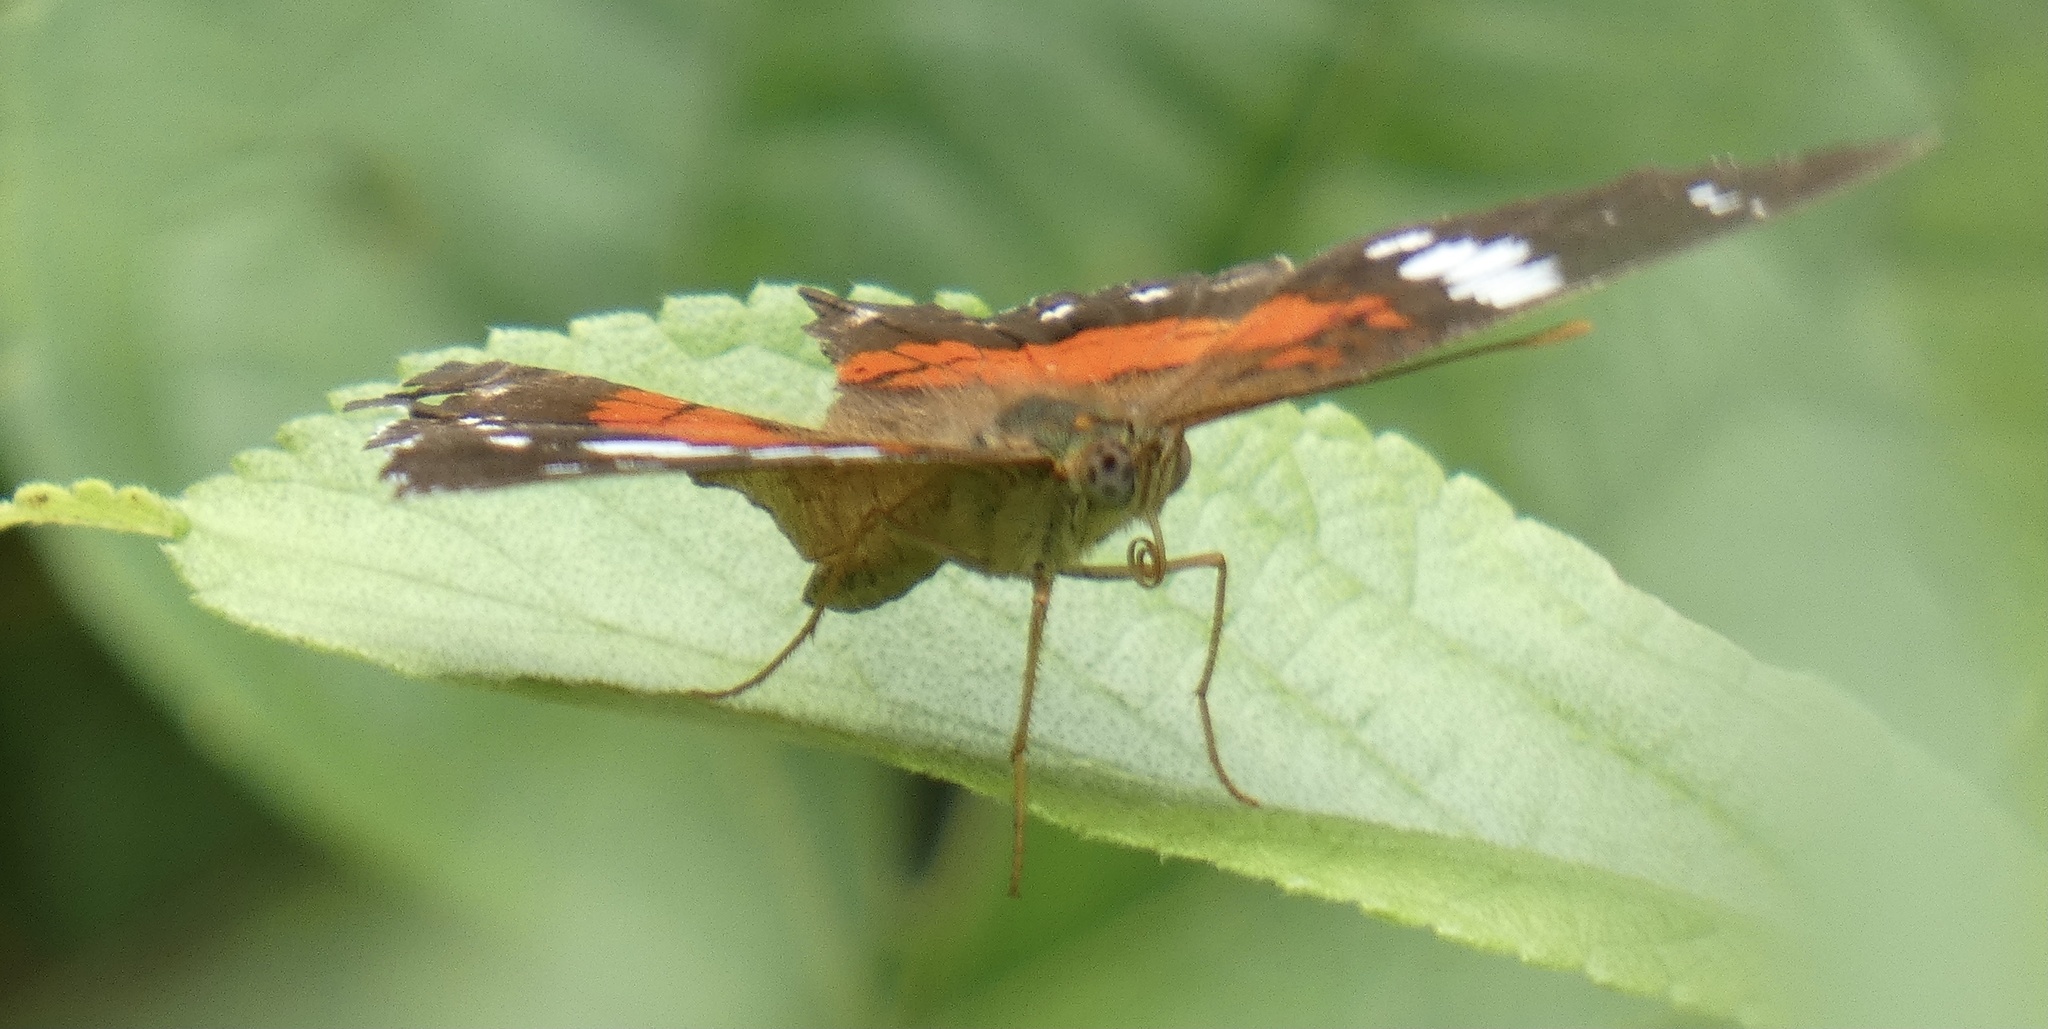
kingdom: Animalia
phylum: Arthropoda
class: Insecta
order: Lepidoptera
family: Nymphalidae
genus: Anartia
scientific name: Anartia amathea
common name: Red peacock
